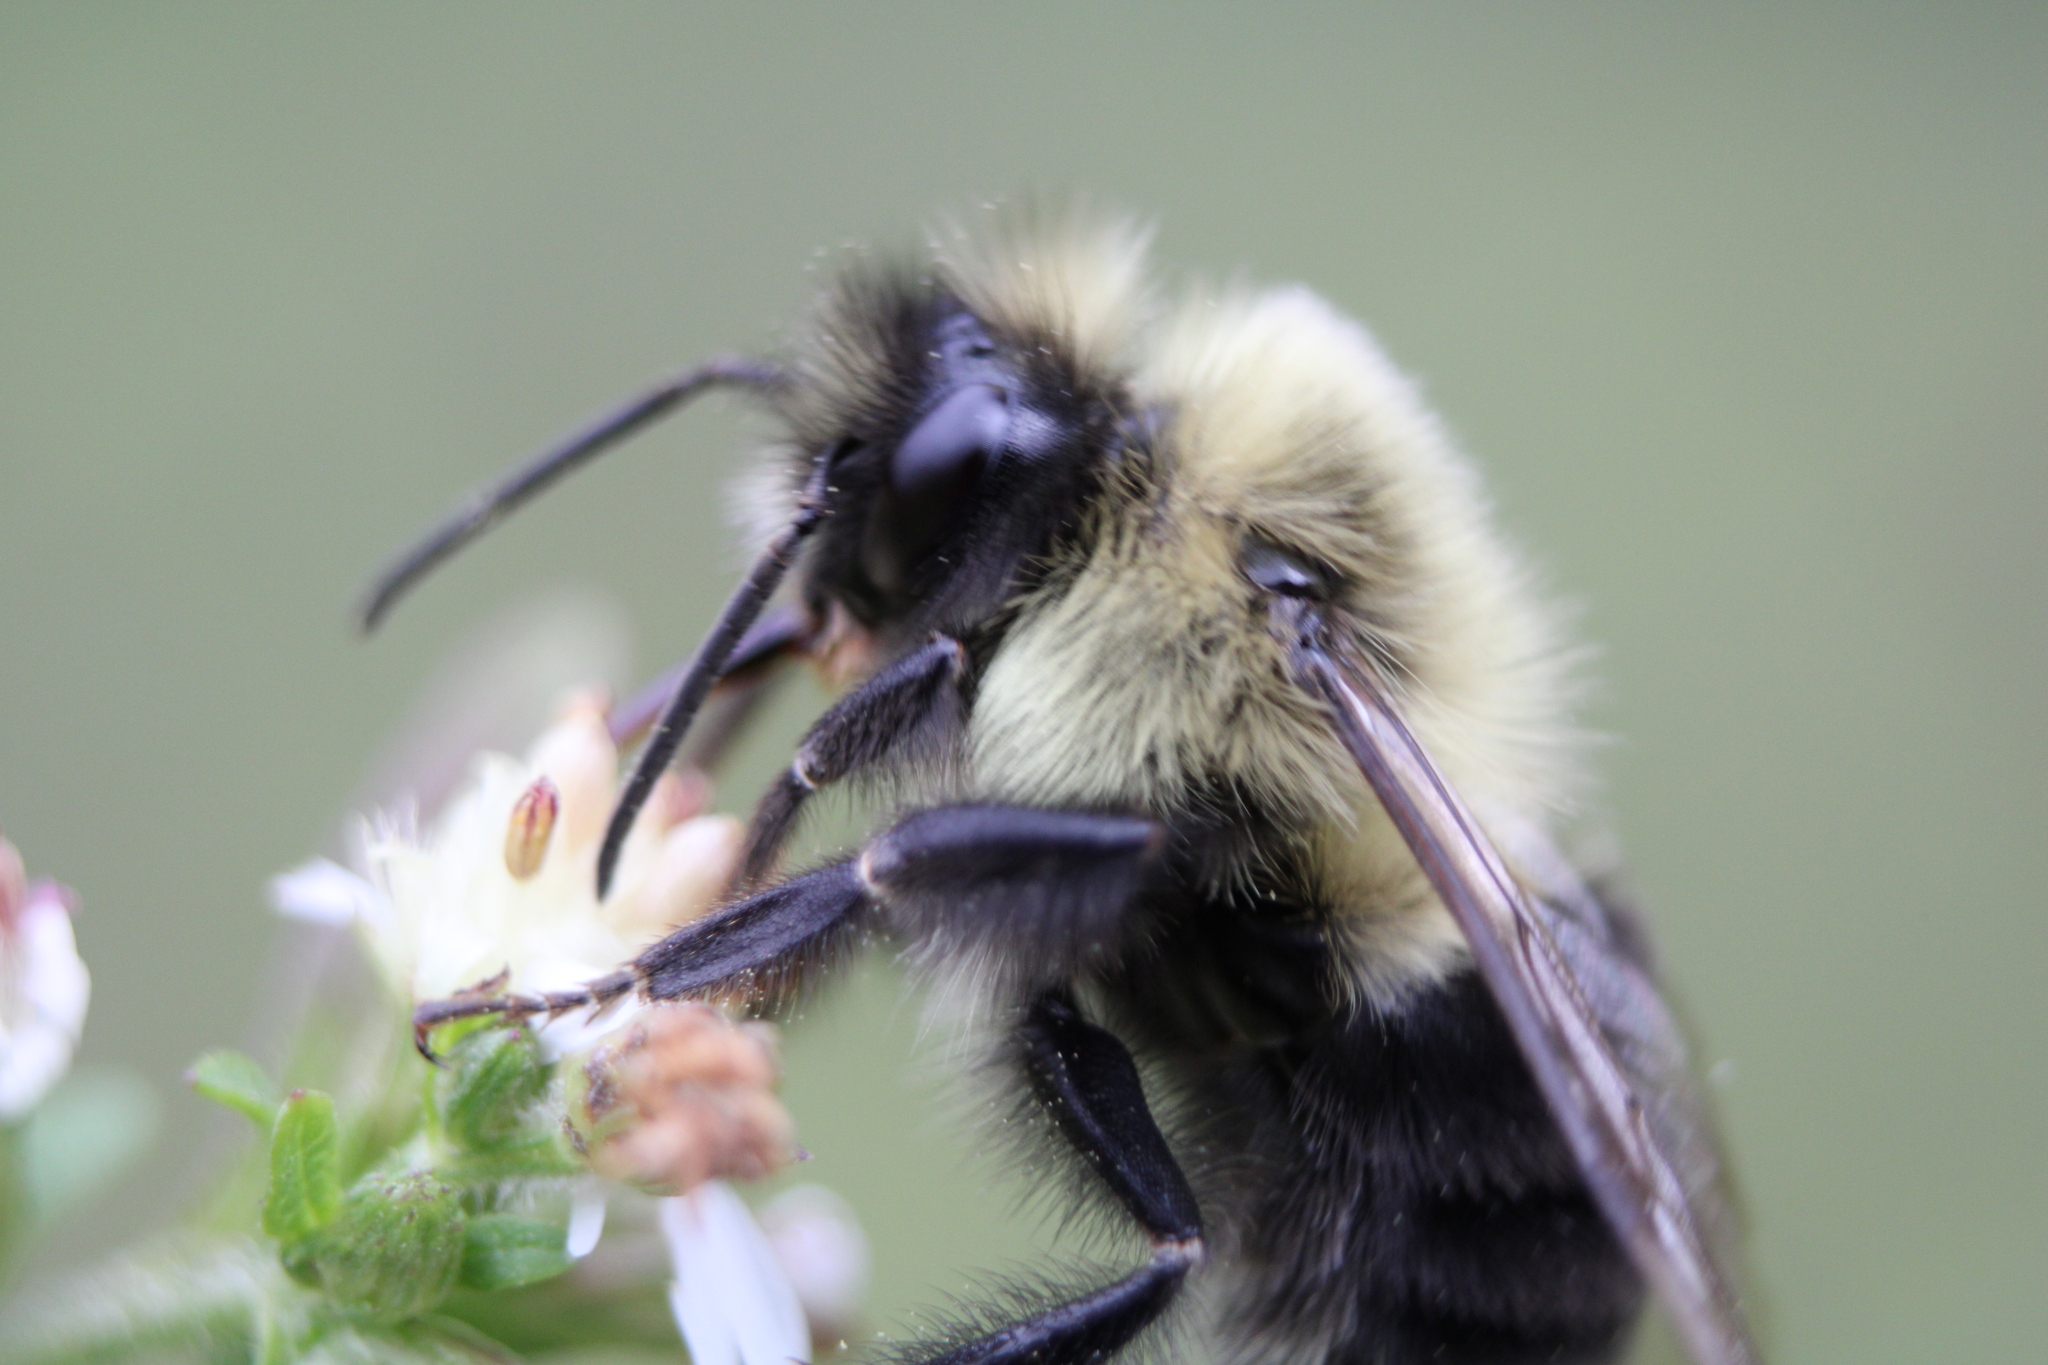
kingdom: Animalia
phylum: Arthropoda
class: Insecta
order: Hymenoptera
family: Apidae
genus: Bombus
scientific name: Bombus impatiens
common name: Common eastern bumble bee
